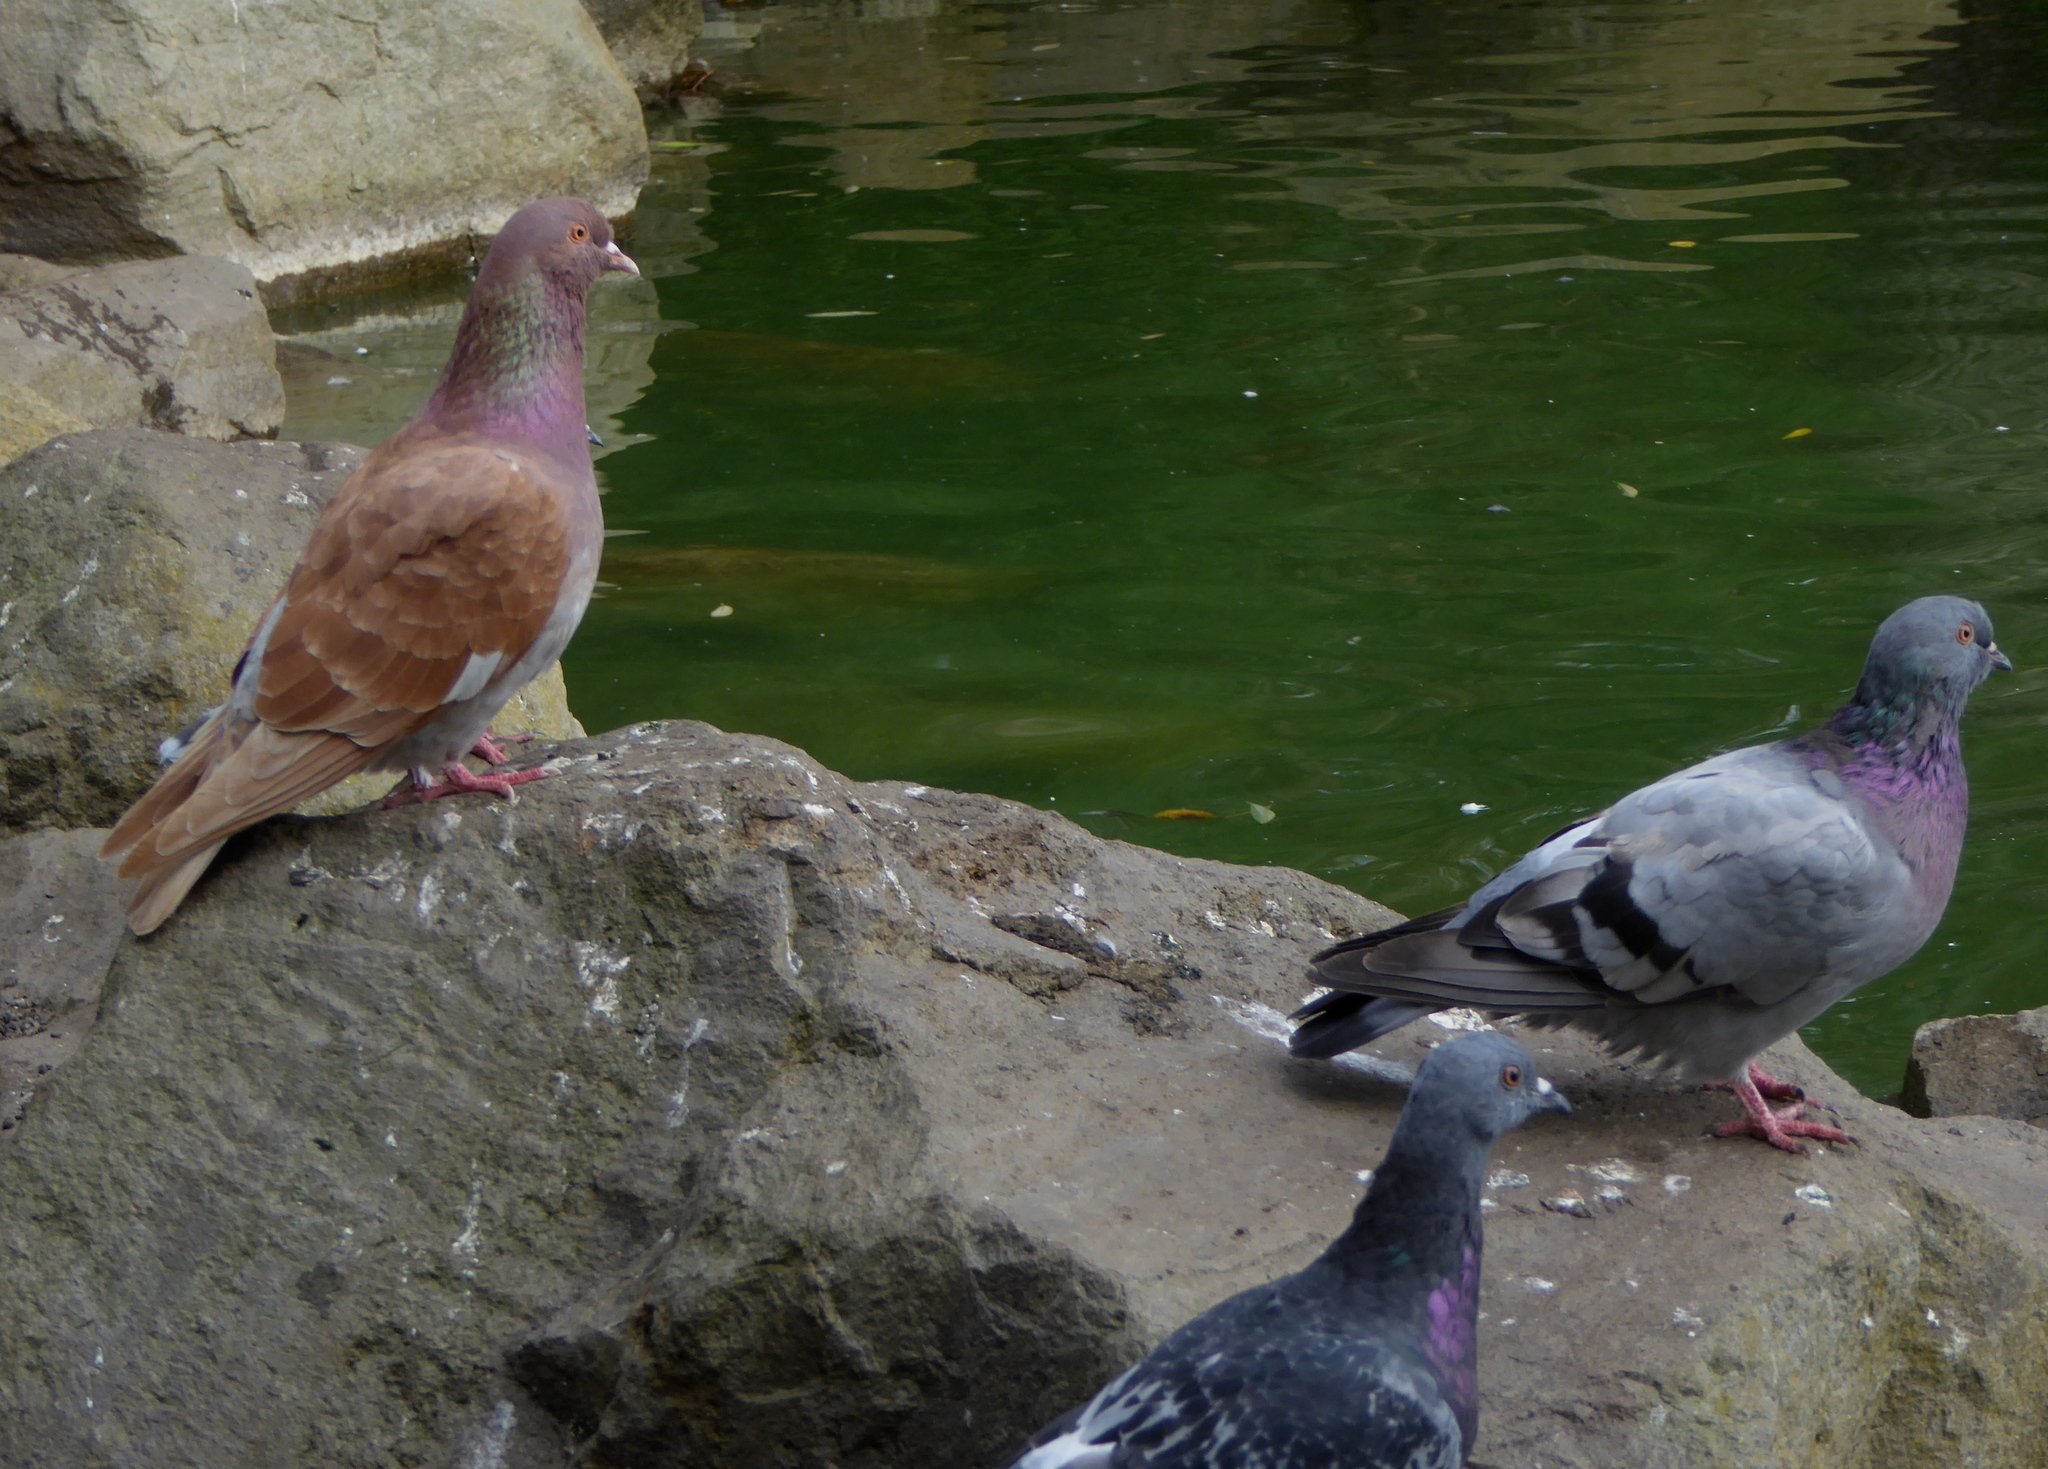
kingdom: Animalia
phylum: Chordata
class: Aves
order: Columbiformes
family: Columbidae
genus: Columba
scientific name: Columba livia
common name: Rock pigeon
